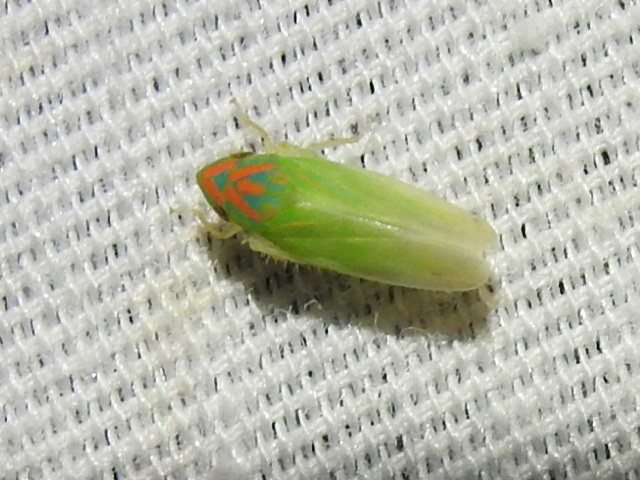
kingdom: Animalia
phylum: Arthropoda
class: Insecta
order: Hemiptera
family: Cicadellidae
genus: Spangbergiella
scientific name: Spangbergiella vulnerata
